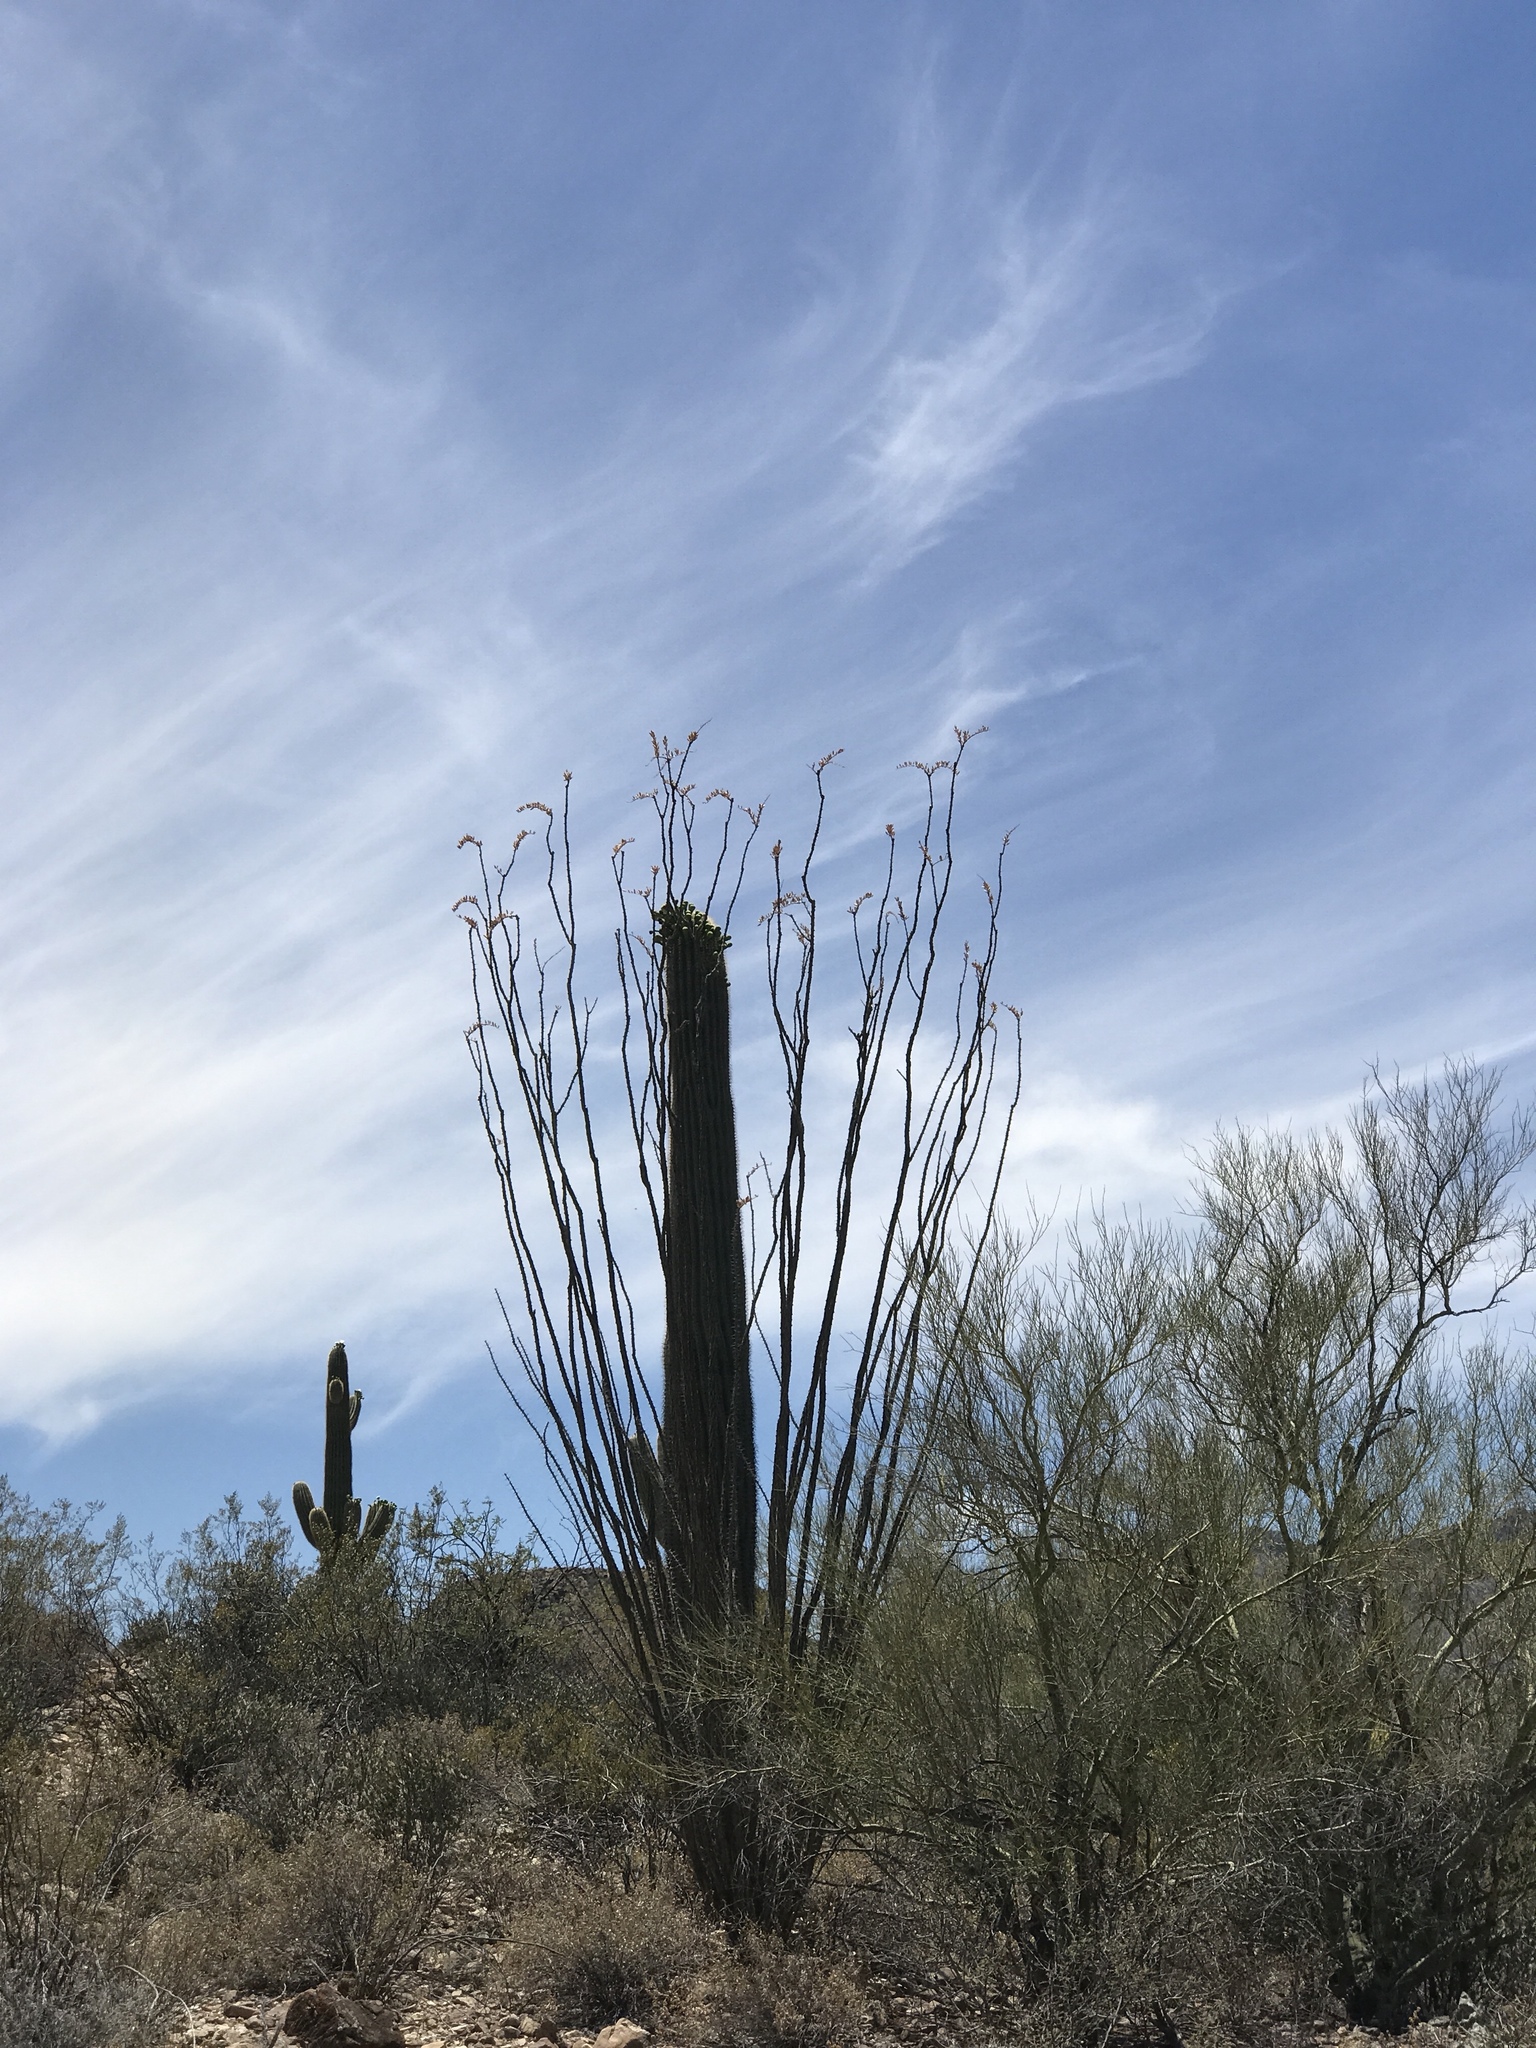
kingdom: Plantae
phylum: Tracheophyta
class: Magnoliopsida
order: Caryophyllales
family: Cactaceae
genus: Carnegiea
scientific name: Carnegiea gigantea
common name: Saguaro
